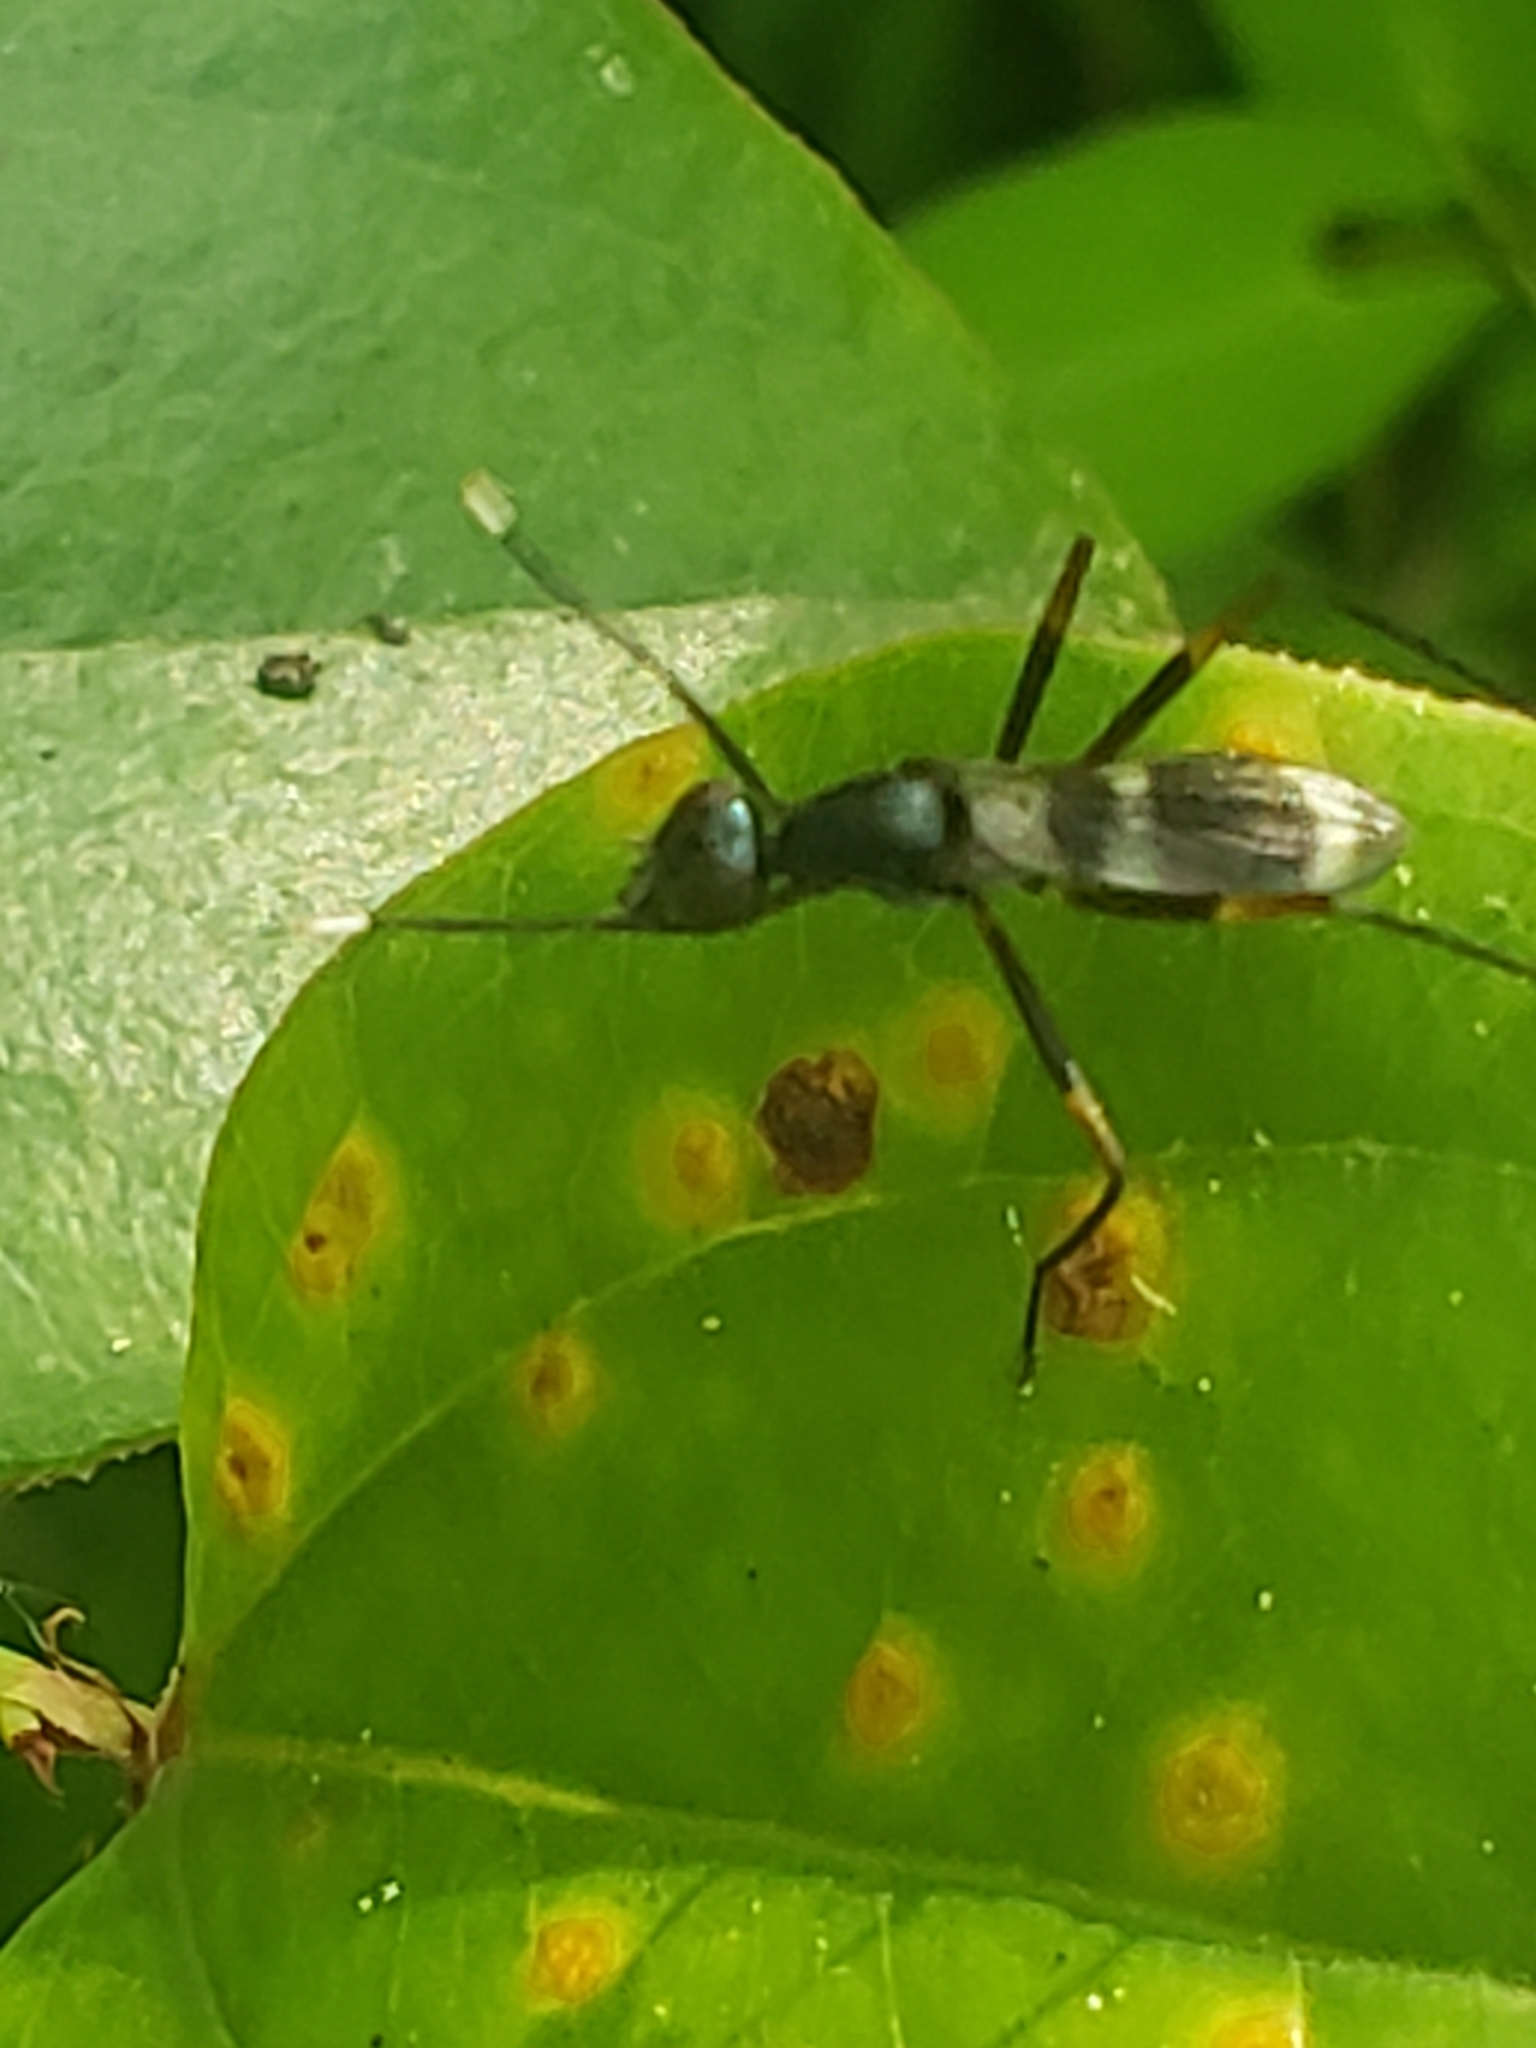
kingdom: Animalia
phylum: Arthropoda
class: Insecta
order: Diptera
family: Micropezidae
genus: Taeniaptera
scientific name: Taeniaptera trivittata
